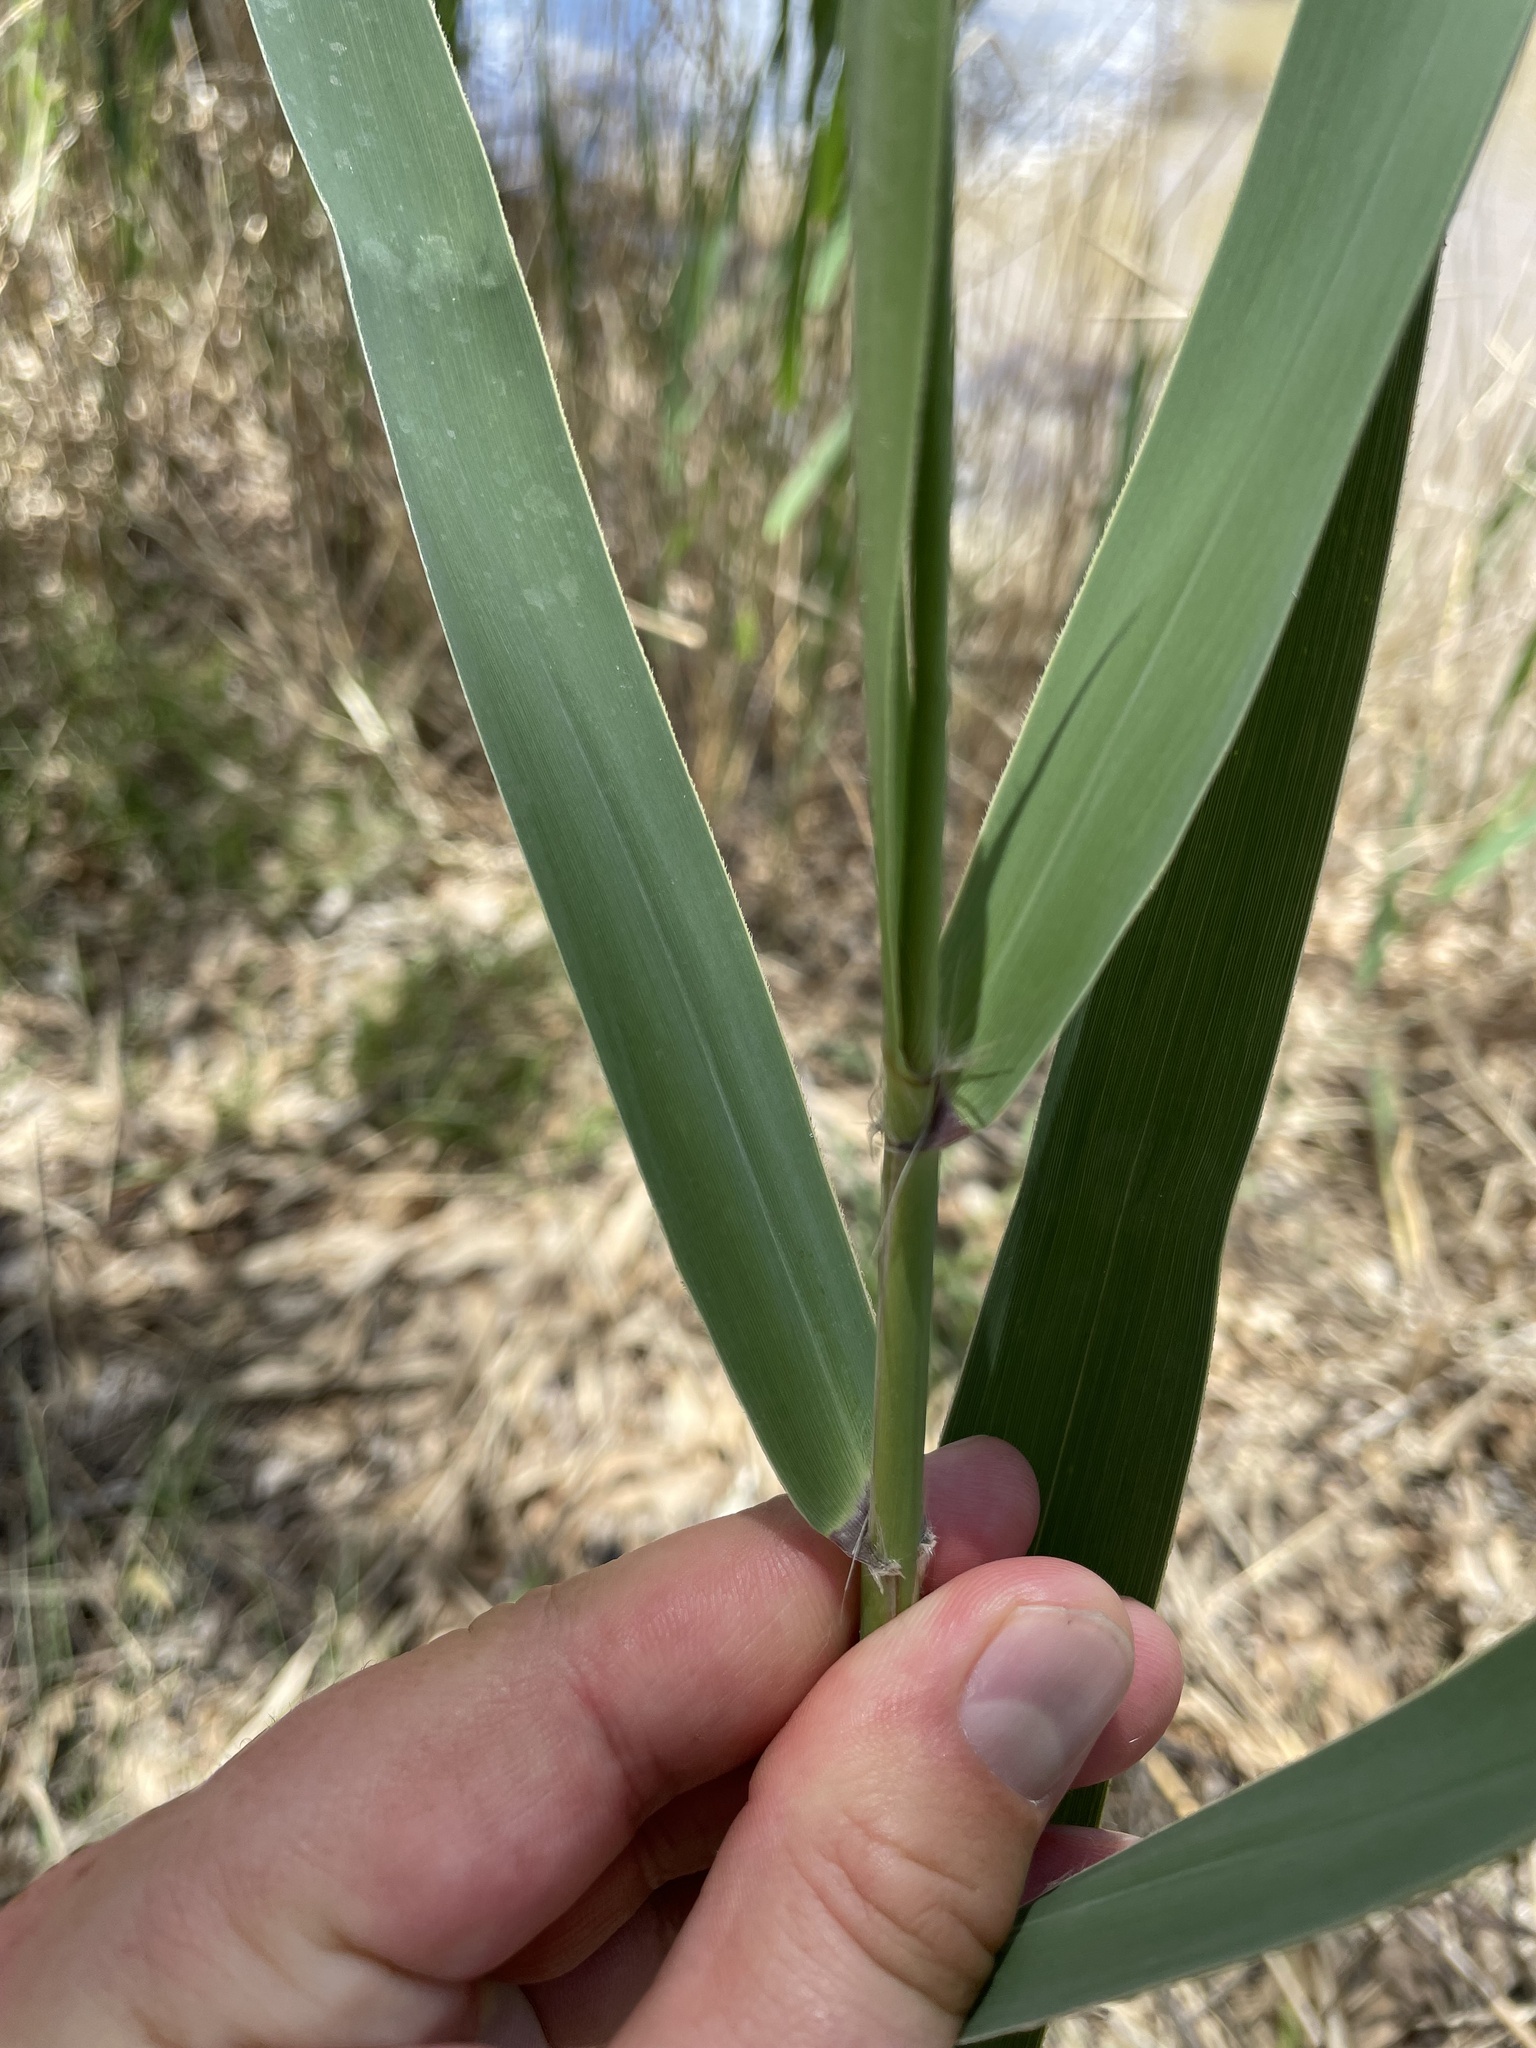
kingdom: Plantae
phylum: Tracheophyta
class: Liliopsida
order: Poales
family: Poaceae
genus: Phragmites
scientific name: Phragmites australis
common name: Common reed
